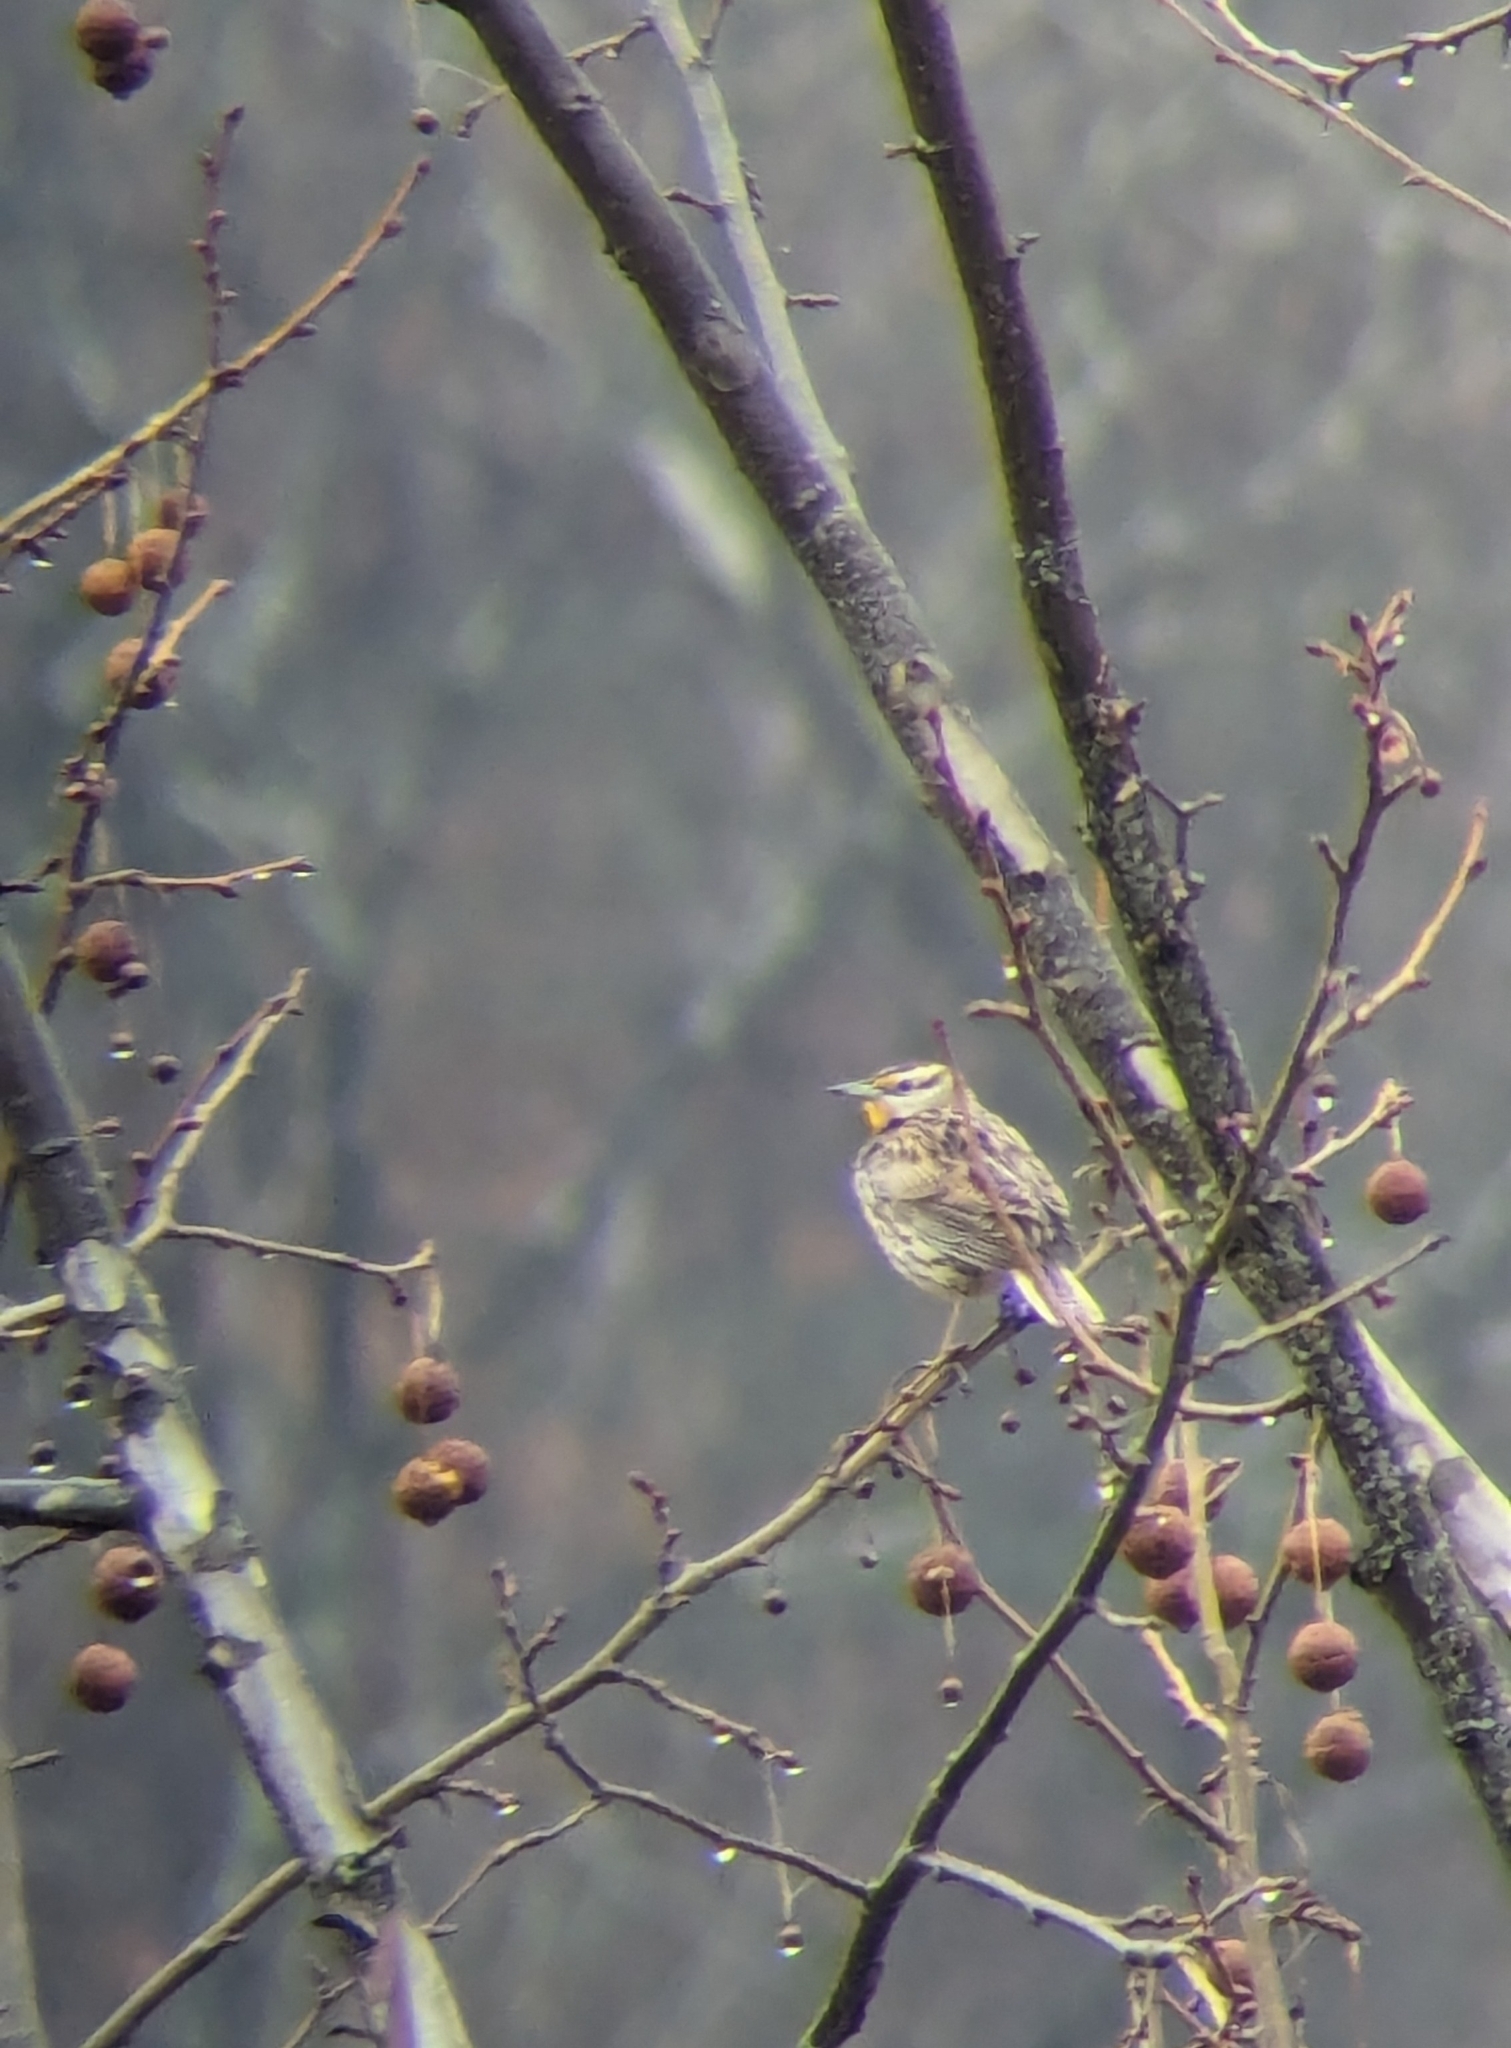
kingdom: Animalia
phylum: Chordata
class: Aves
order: Passeriformes
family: Icteridae
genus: Sturnella
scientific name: Sturnella magna
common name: Eastern meadowlark
